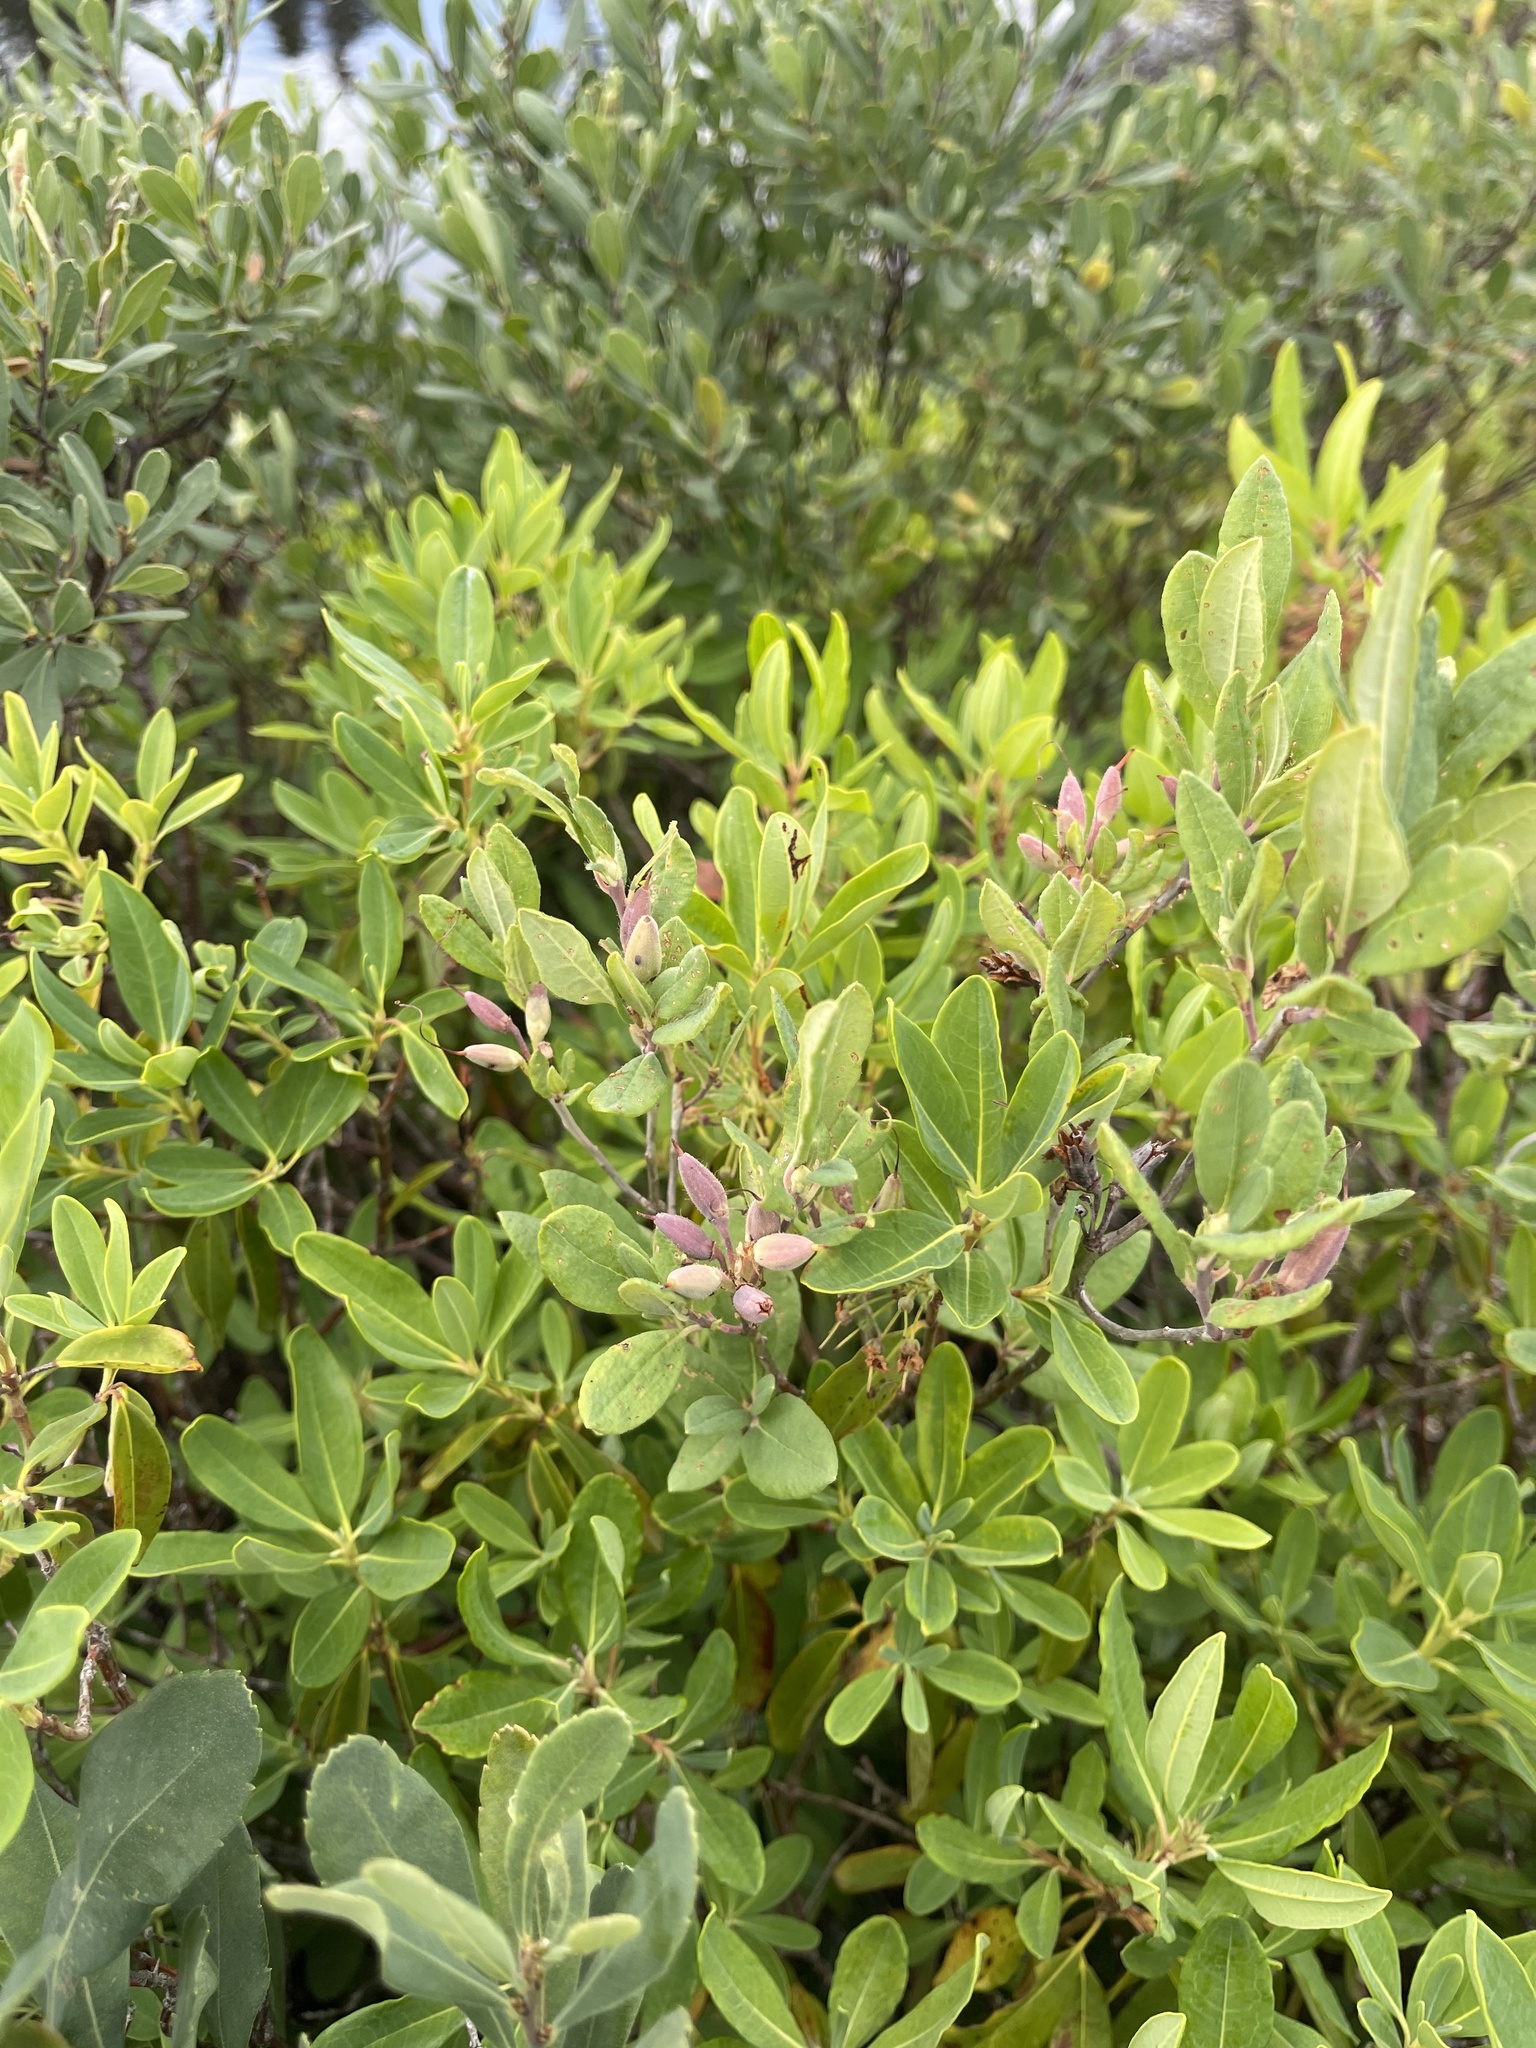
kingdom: Plantae
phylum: Tracheophyta
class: Magnoliopsida
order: Ericales
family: Ericaceae
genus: Rhododendron
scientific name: Rhododendron canadense
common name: Rhodora
